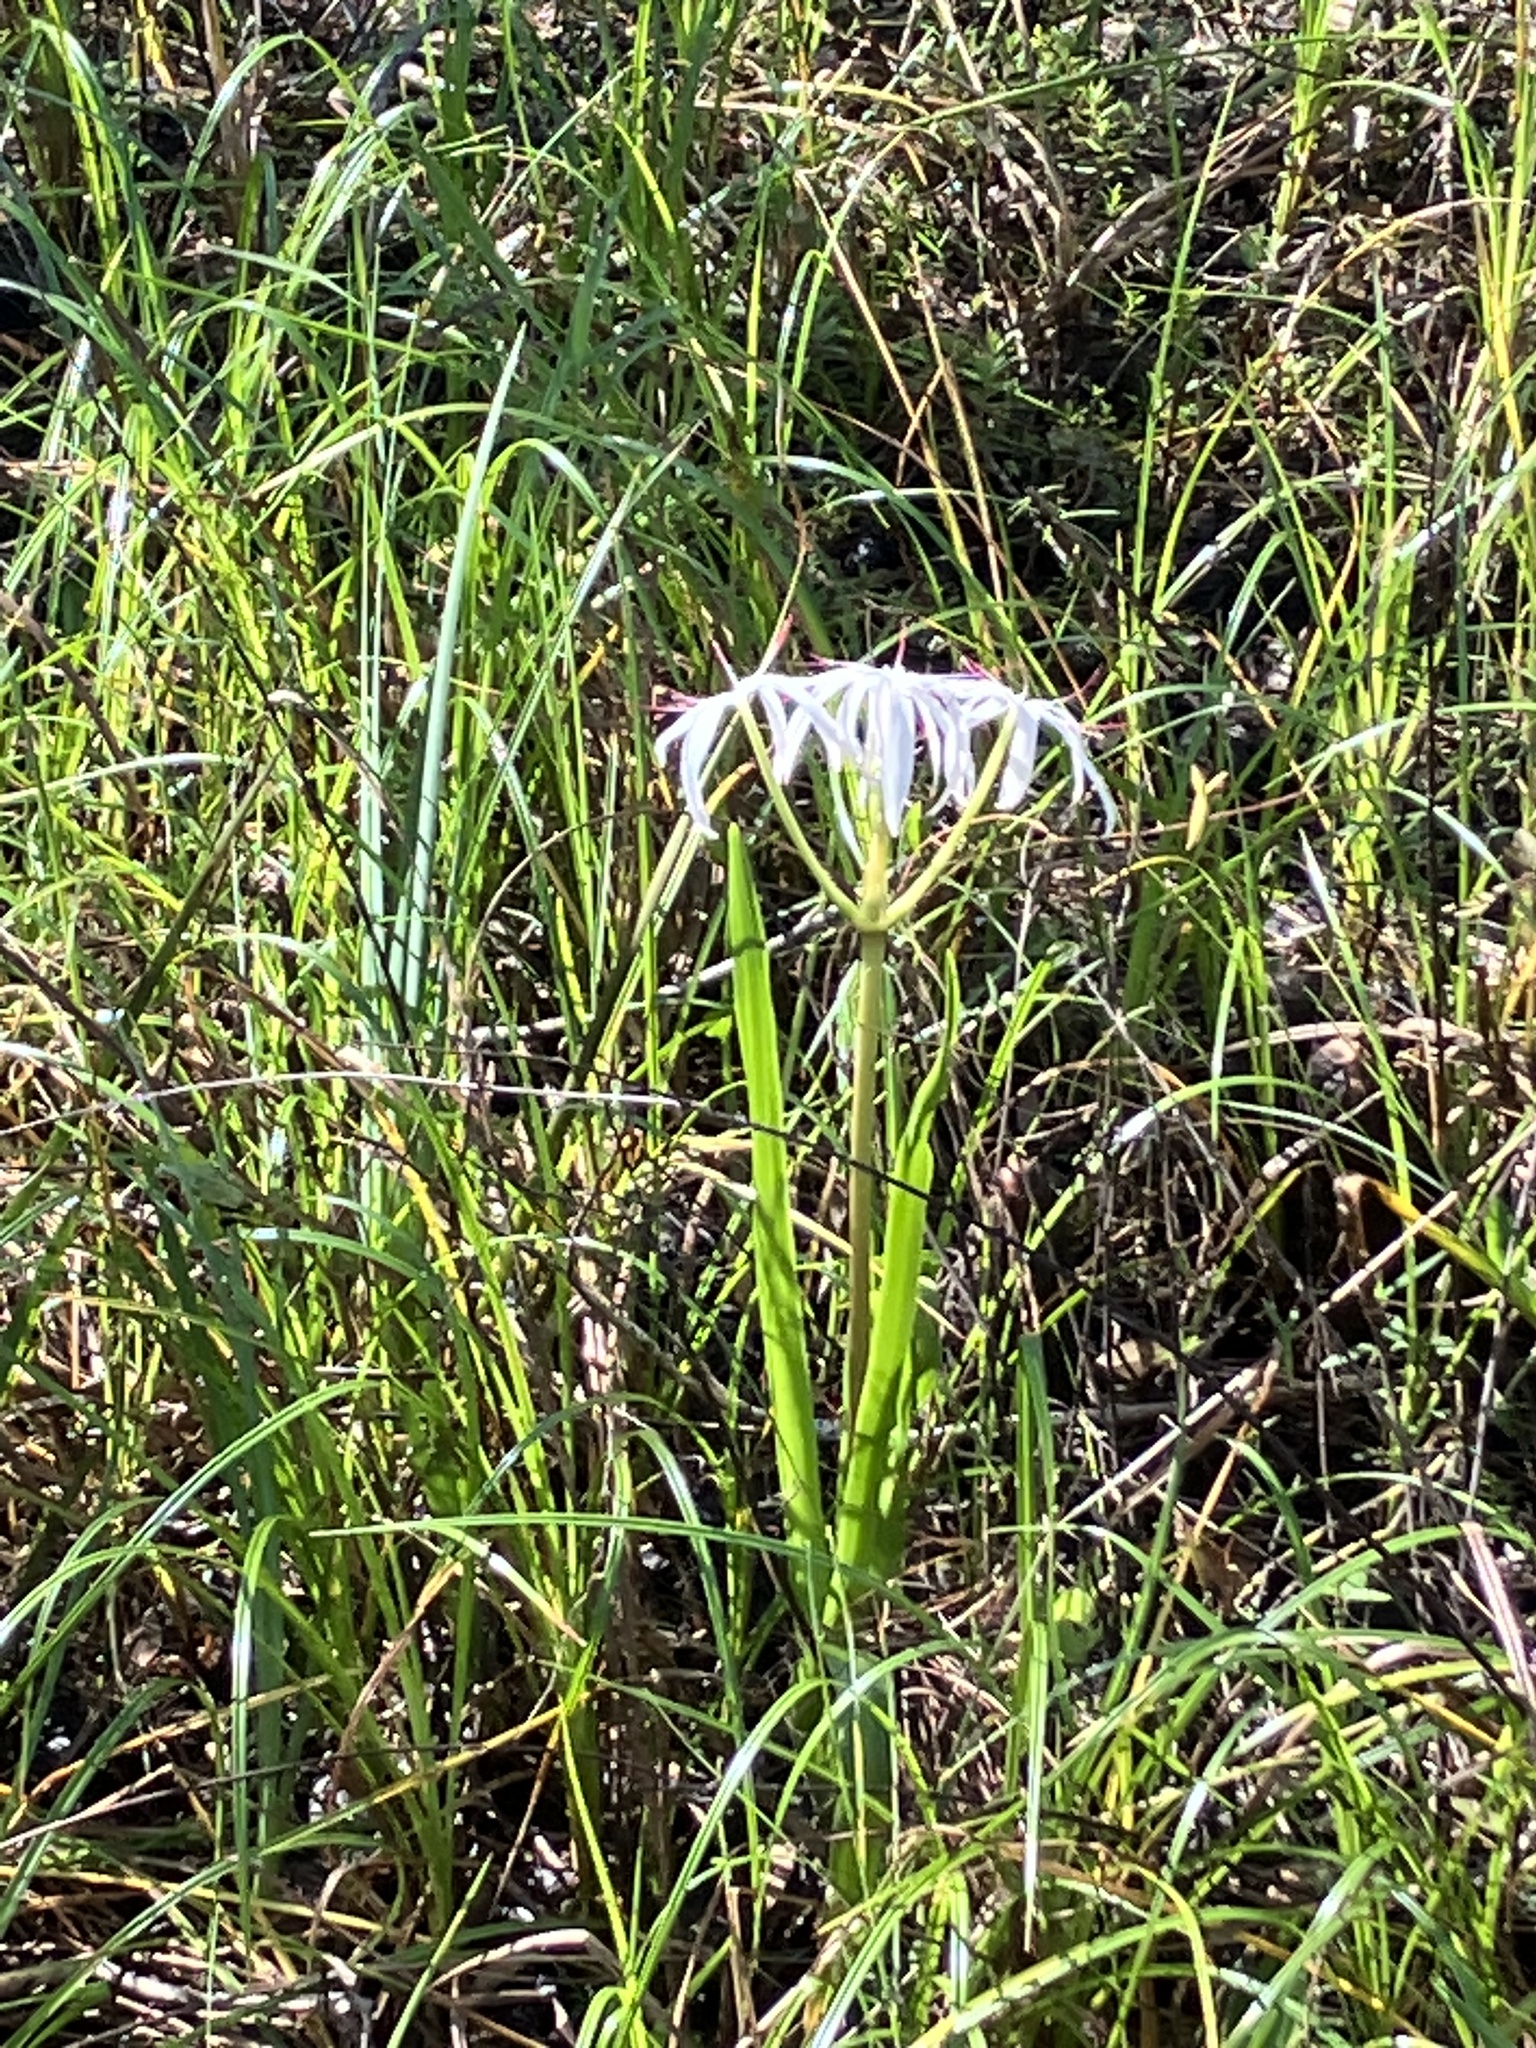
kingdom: Plantae
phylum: Tracheophyta
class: Liliopsida
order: Asparagales
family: Amaryllidaceae
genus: Crinum
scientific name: Crinum americanum
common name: Florida swamp-lily
